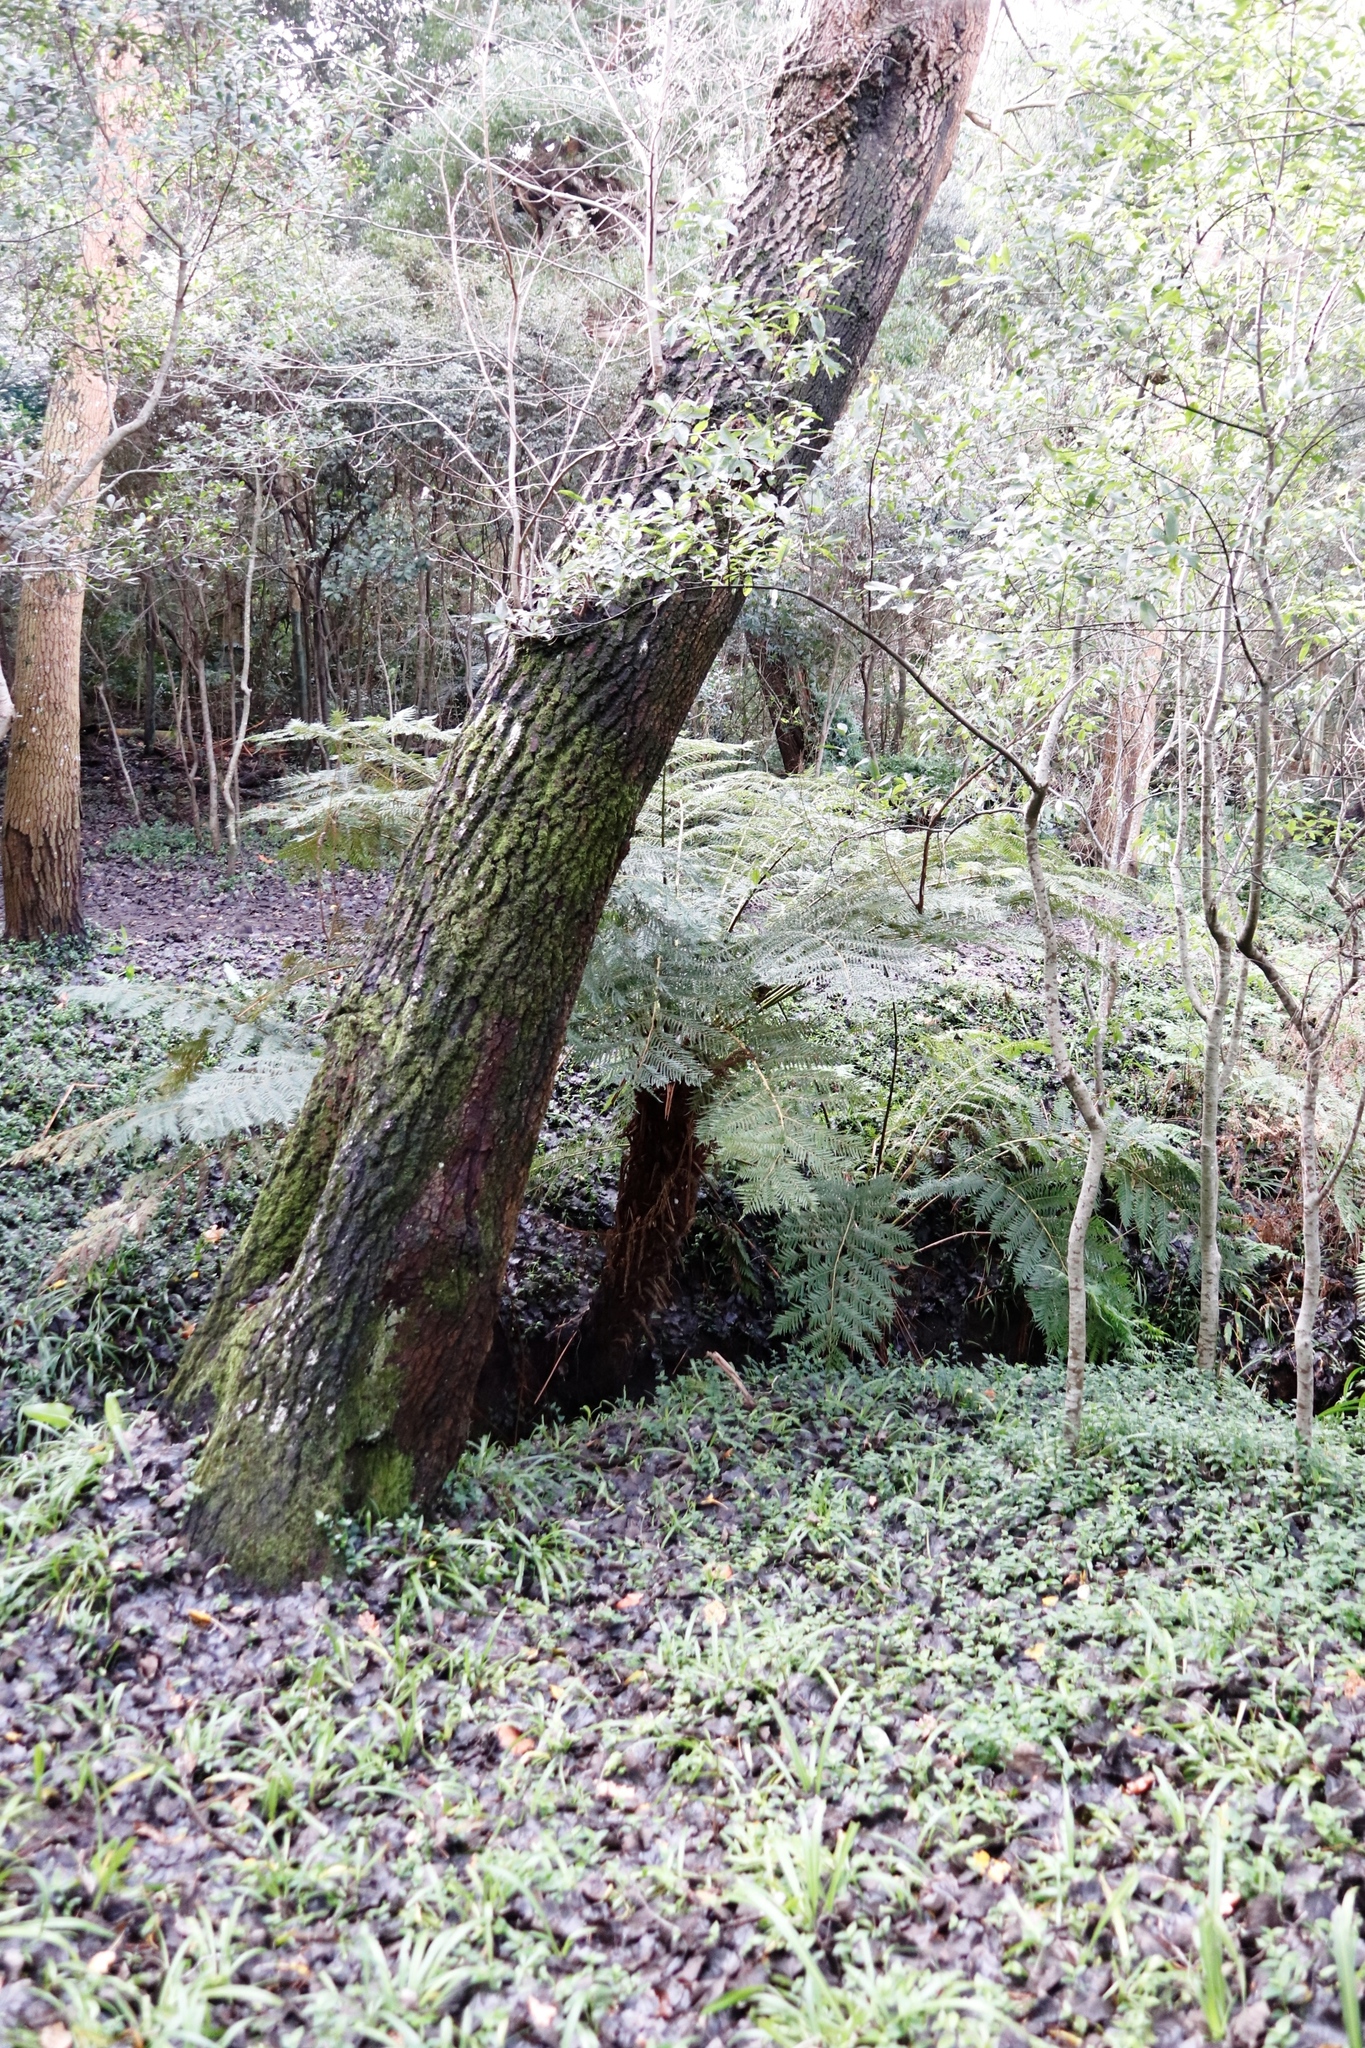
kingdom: Plantae
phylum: Tracheophyta
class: Polypodiopsida
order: Cyatheales
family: Cyatheaceae
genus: Alsophila
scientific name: Alsophila dregei
